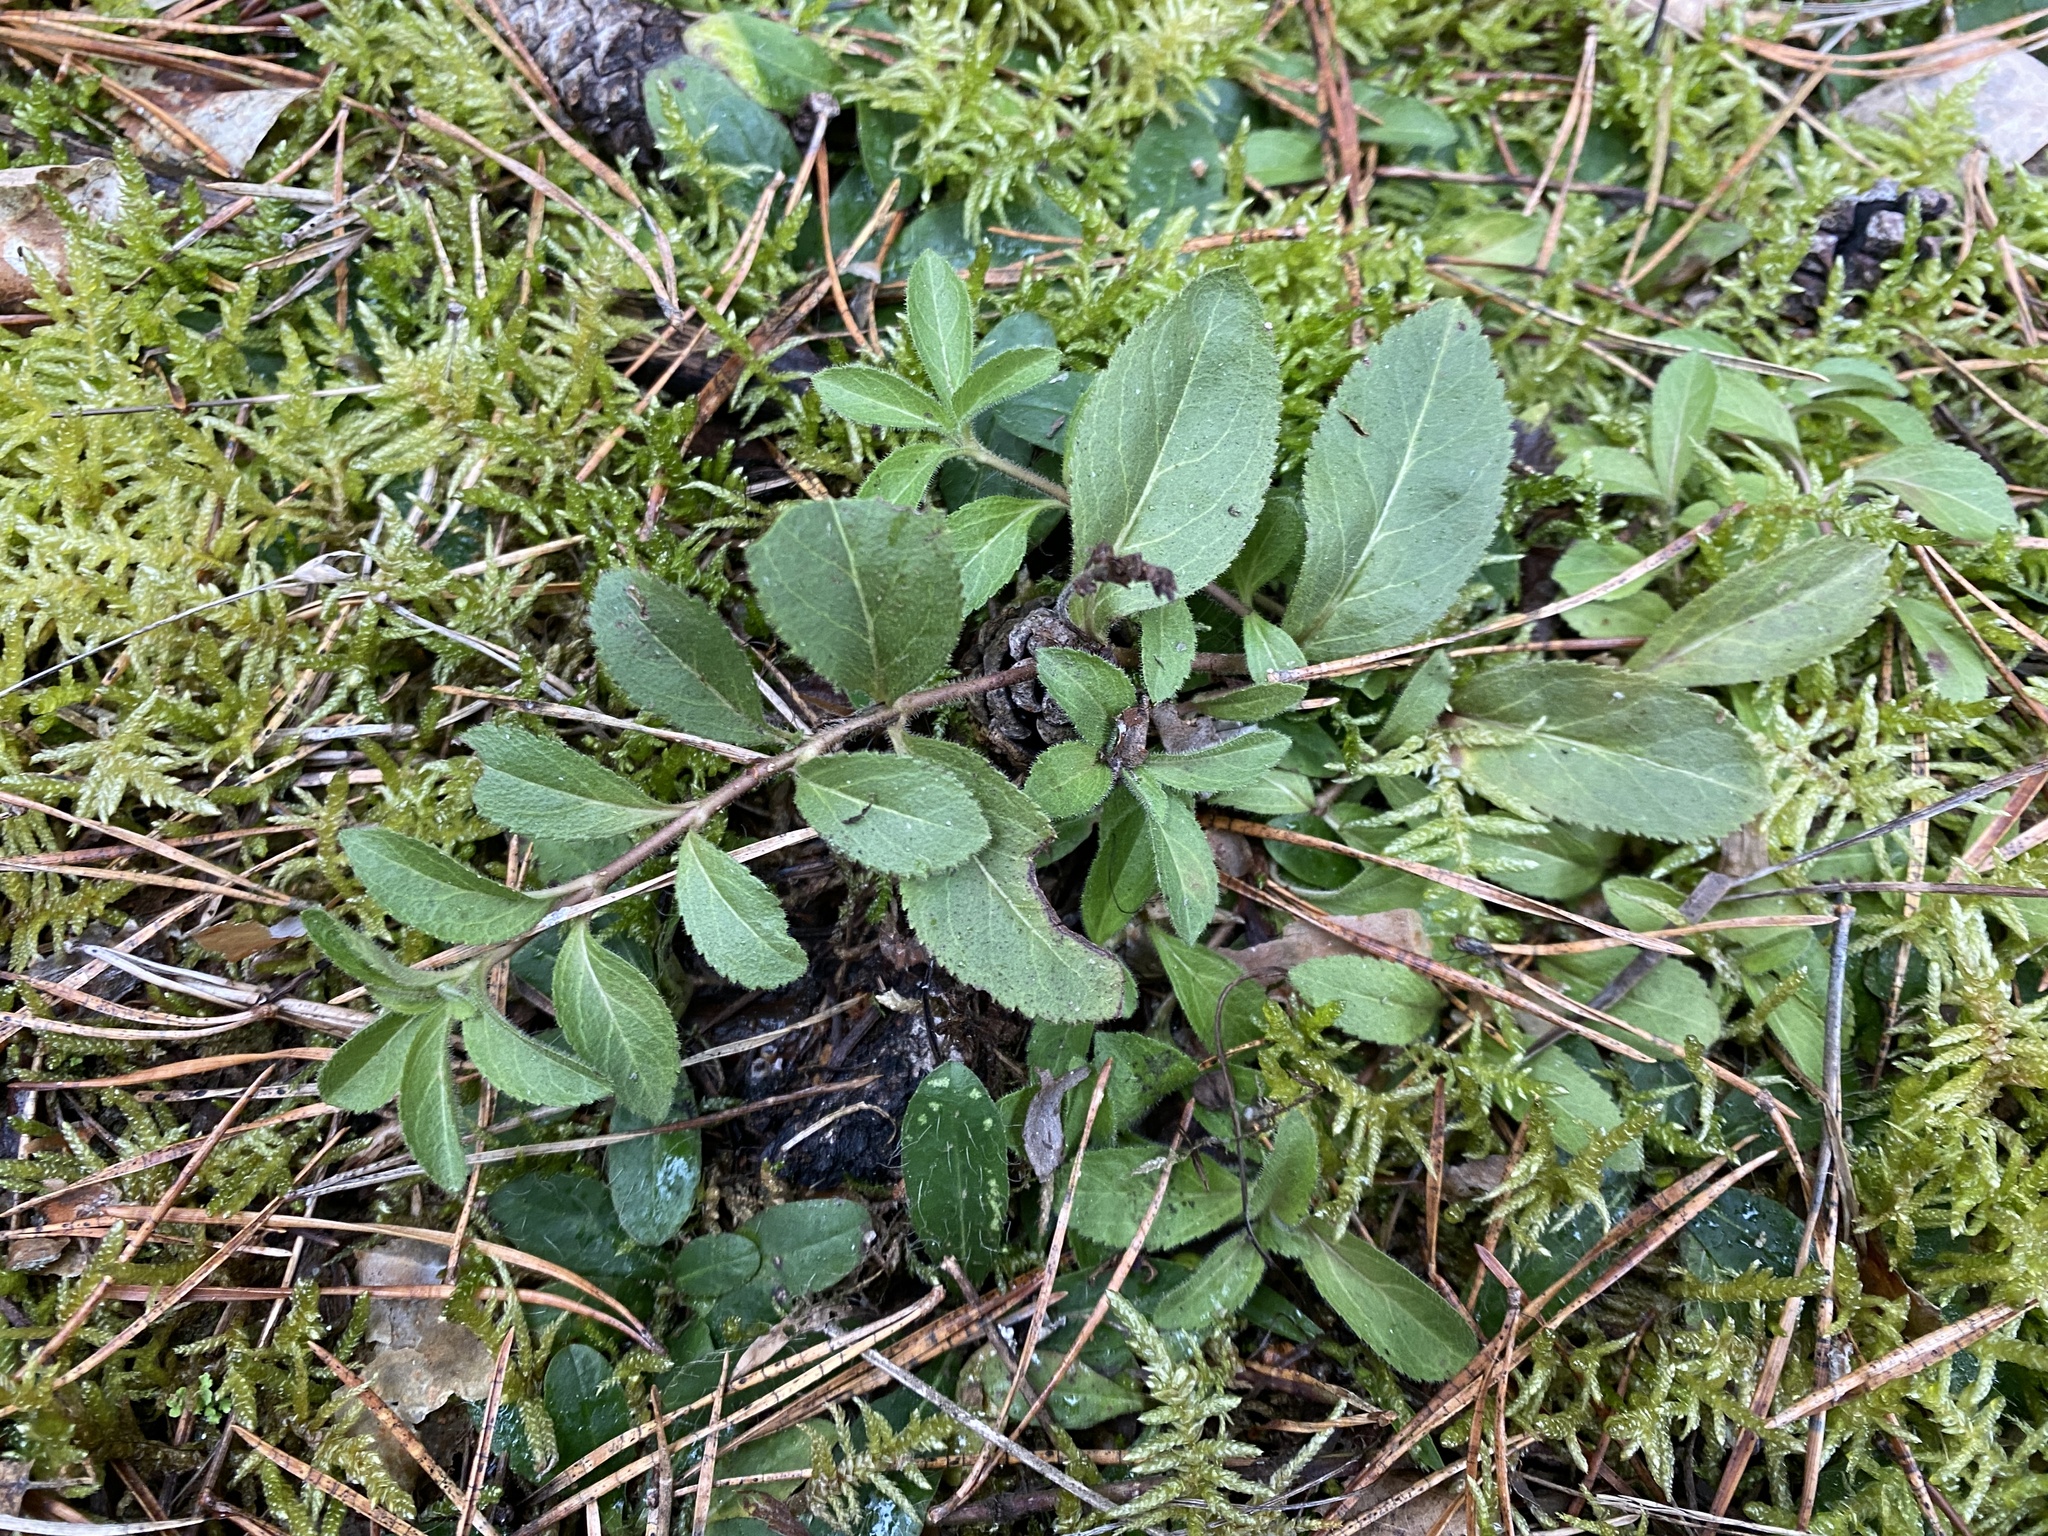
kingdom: Plantae
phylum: Tracheophyta
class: Magnoliopsida
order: Lamiales
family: Plantaginaceae
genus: Veronica
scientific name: Veronica officinalis
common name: Common speedwell
